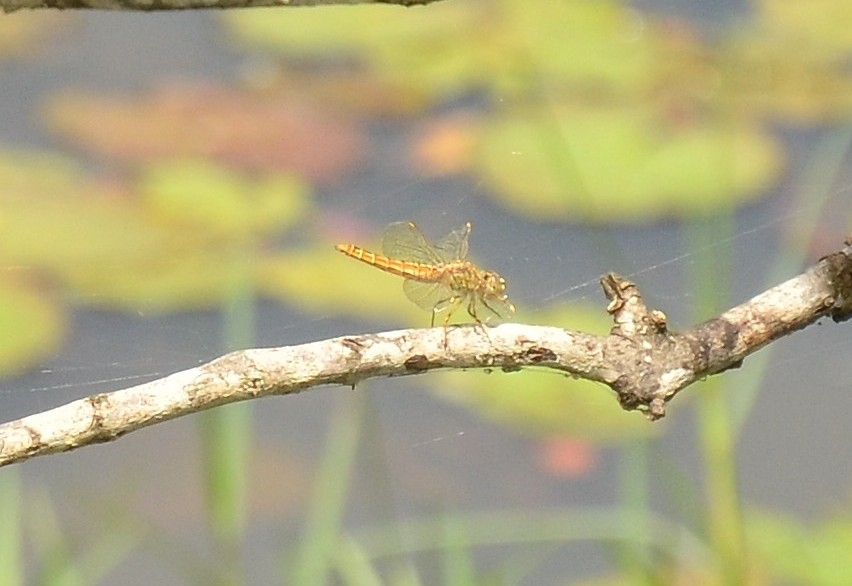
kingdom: Animalia
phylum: Arthropoda
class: Insecta
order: Odonata
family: Libellulidae
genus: Brachythemis
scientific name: Brachythemis contaminata
